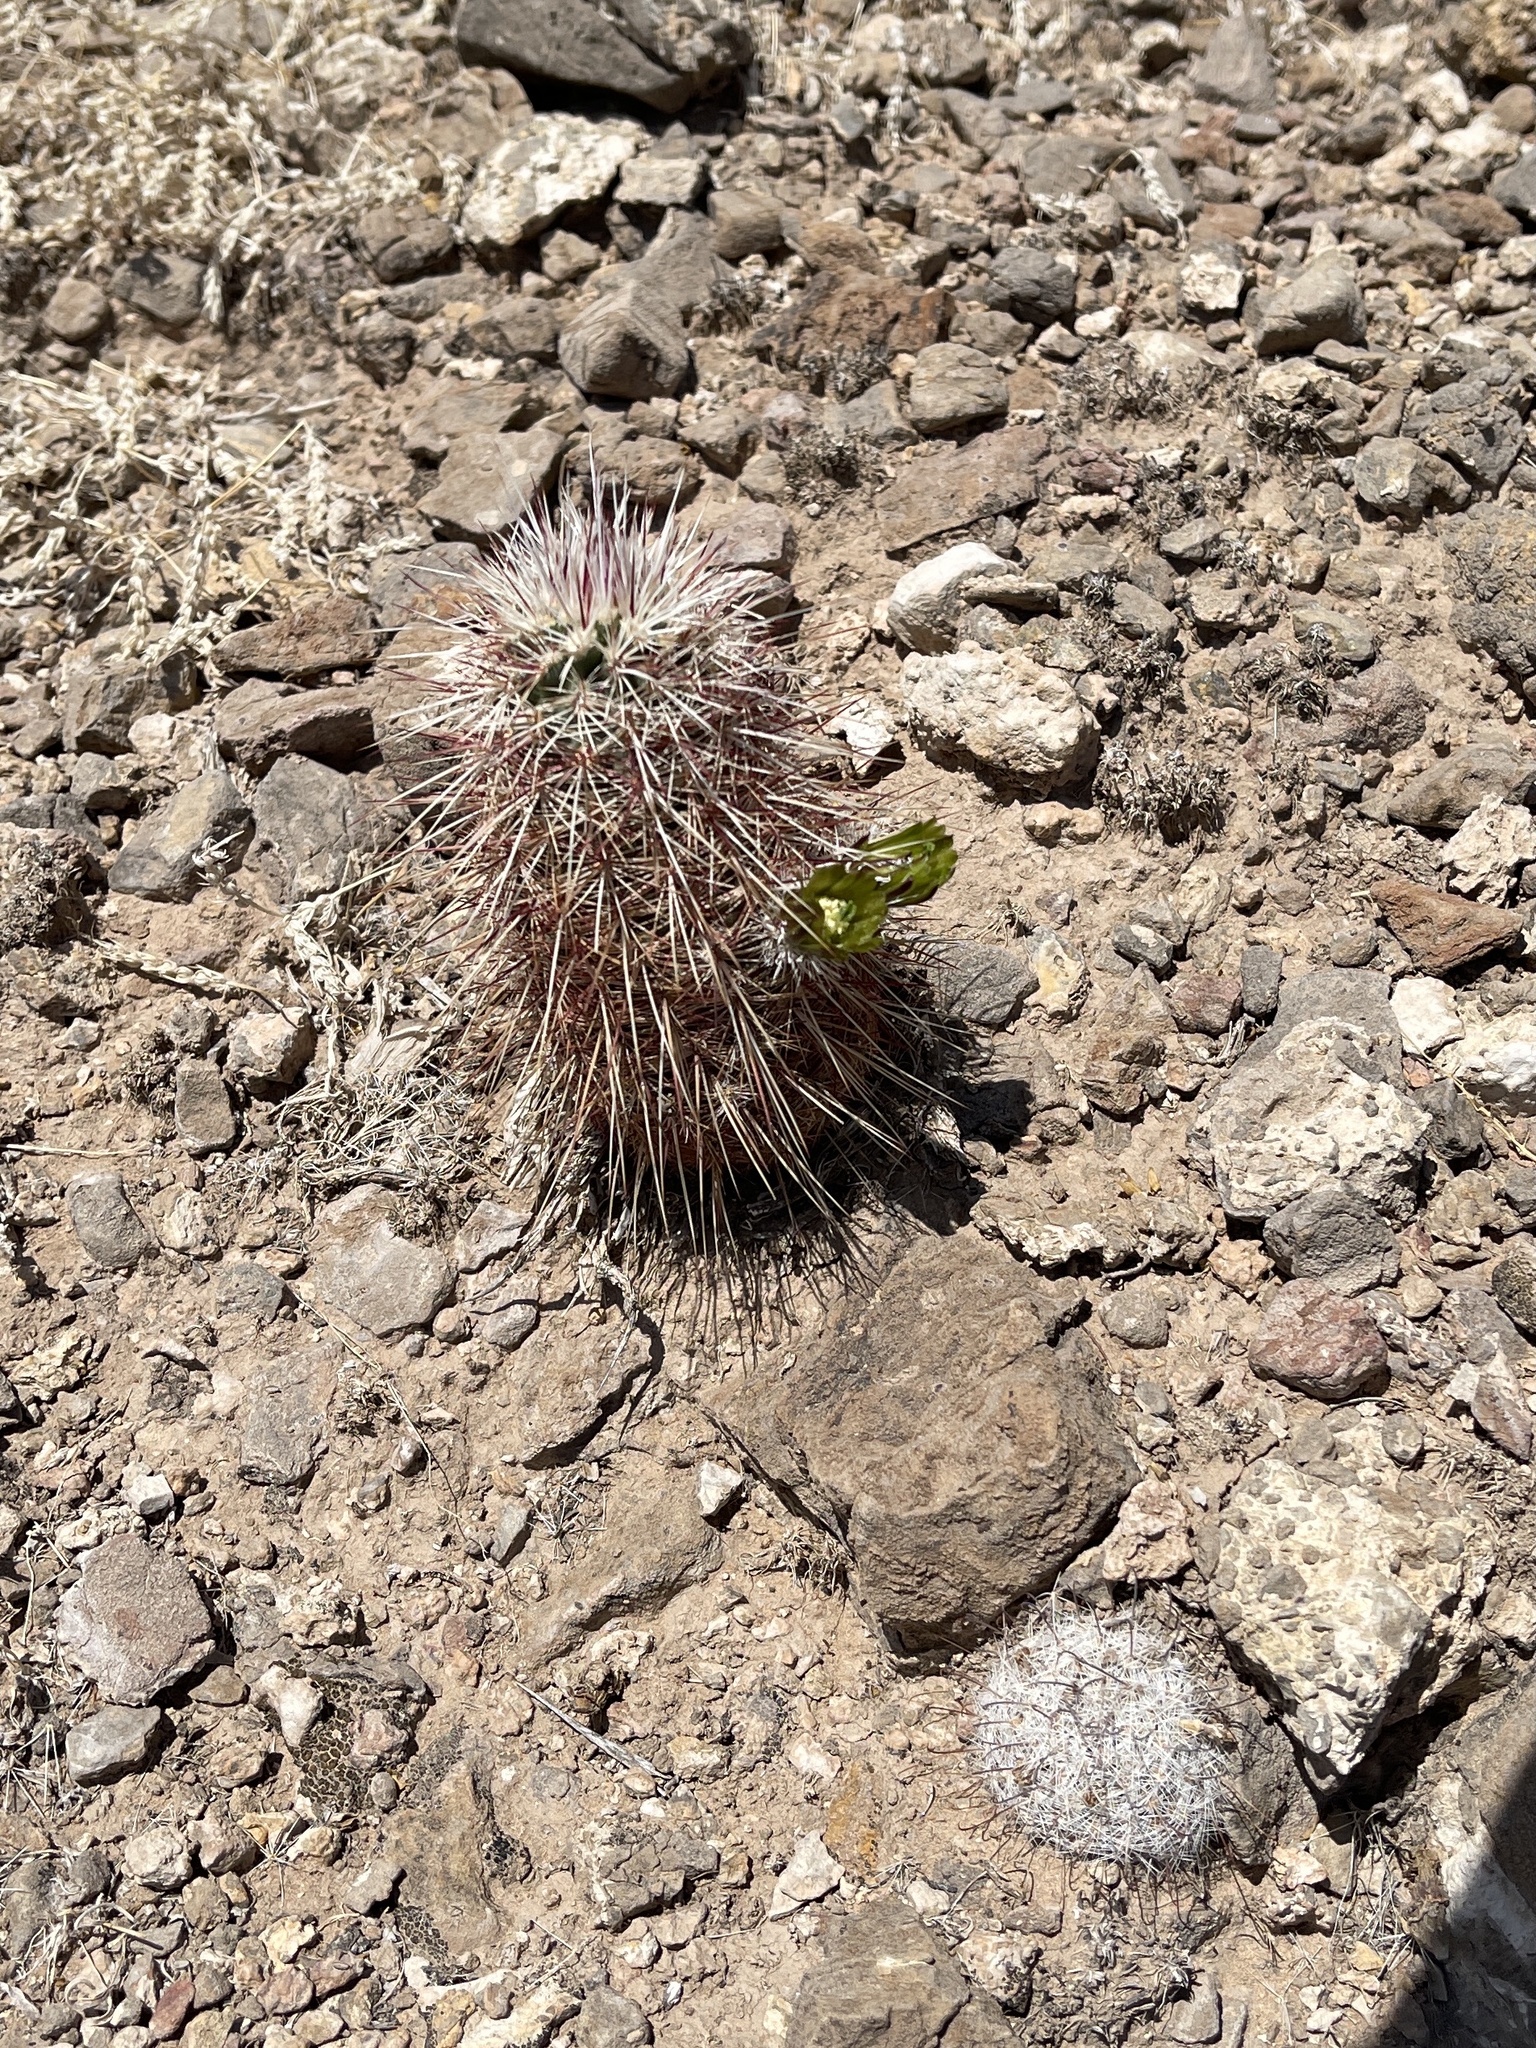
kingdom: Plantae
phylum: Tracheophyta
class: Magnoliopsida
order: Caryophyllales
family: Cactaceae
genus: Echinocereus
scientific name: Echinocereus viridiflorus
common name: Nylon hedgehog cactus
